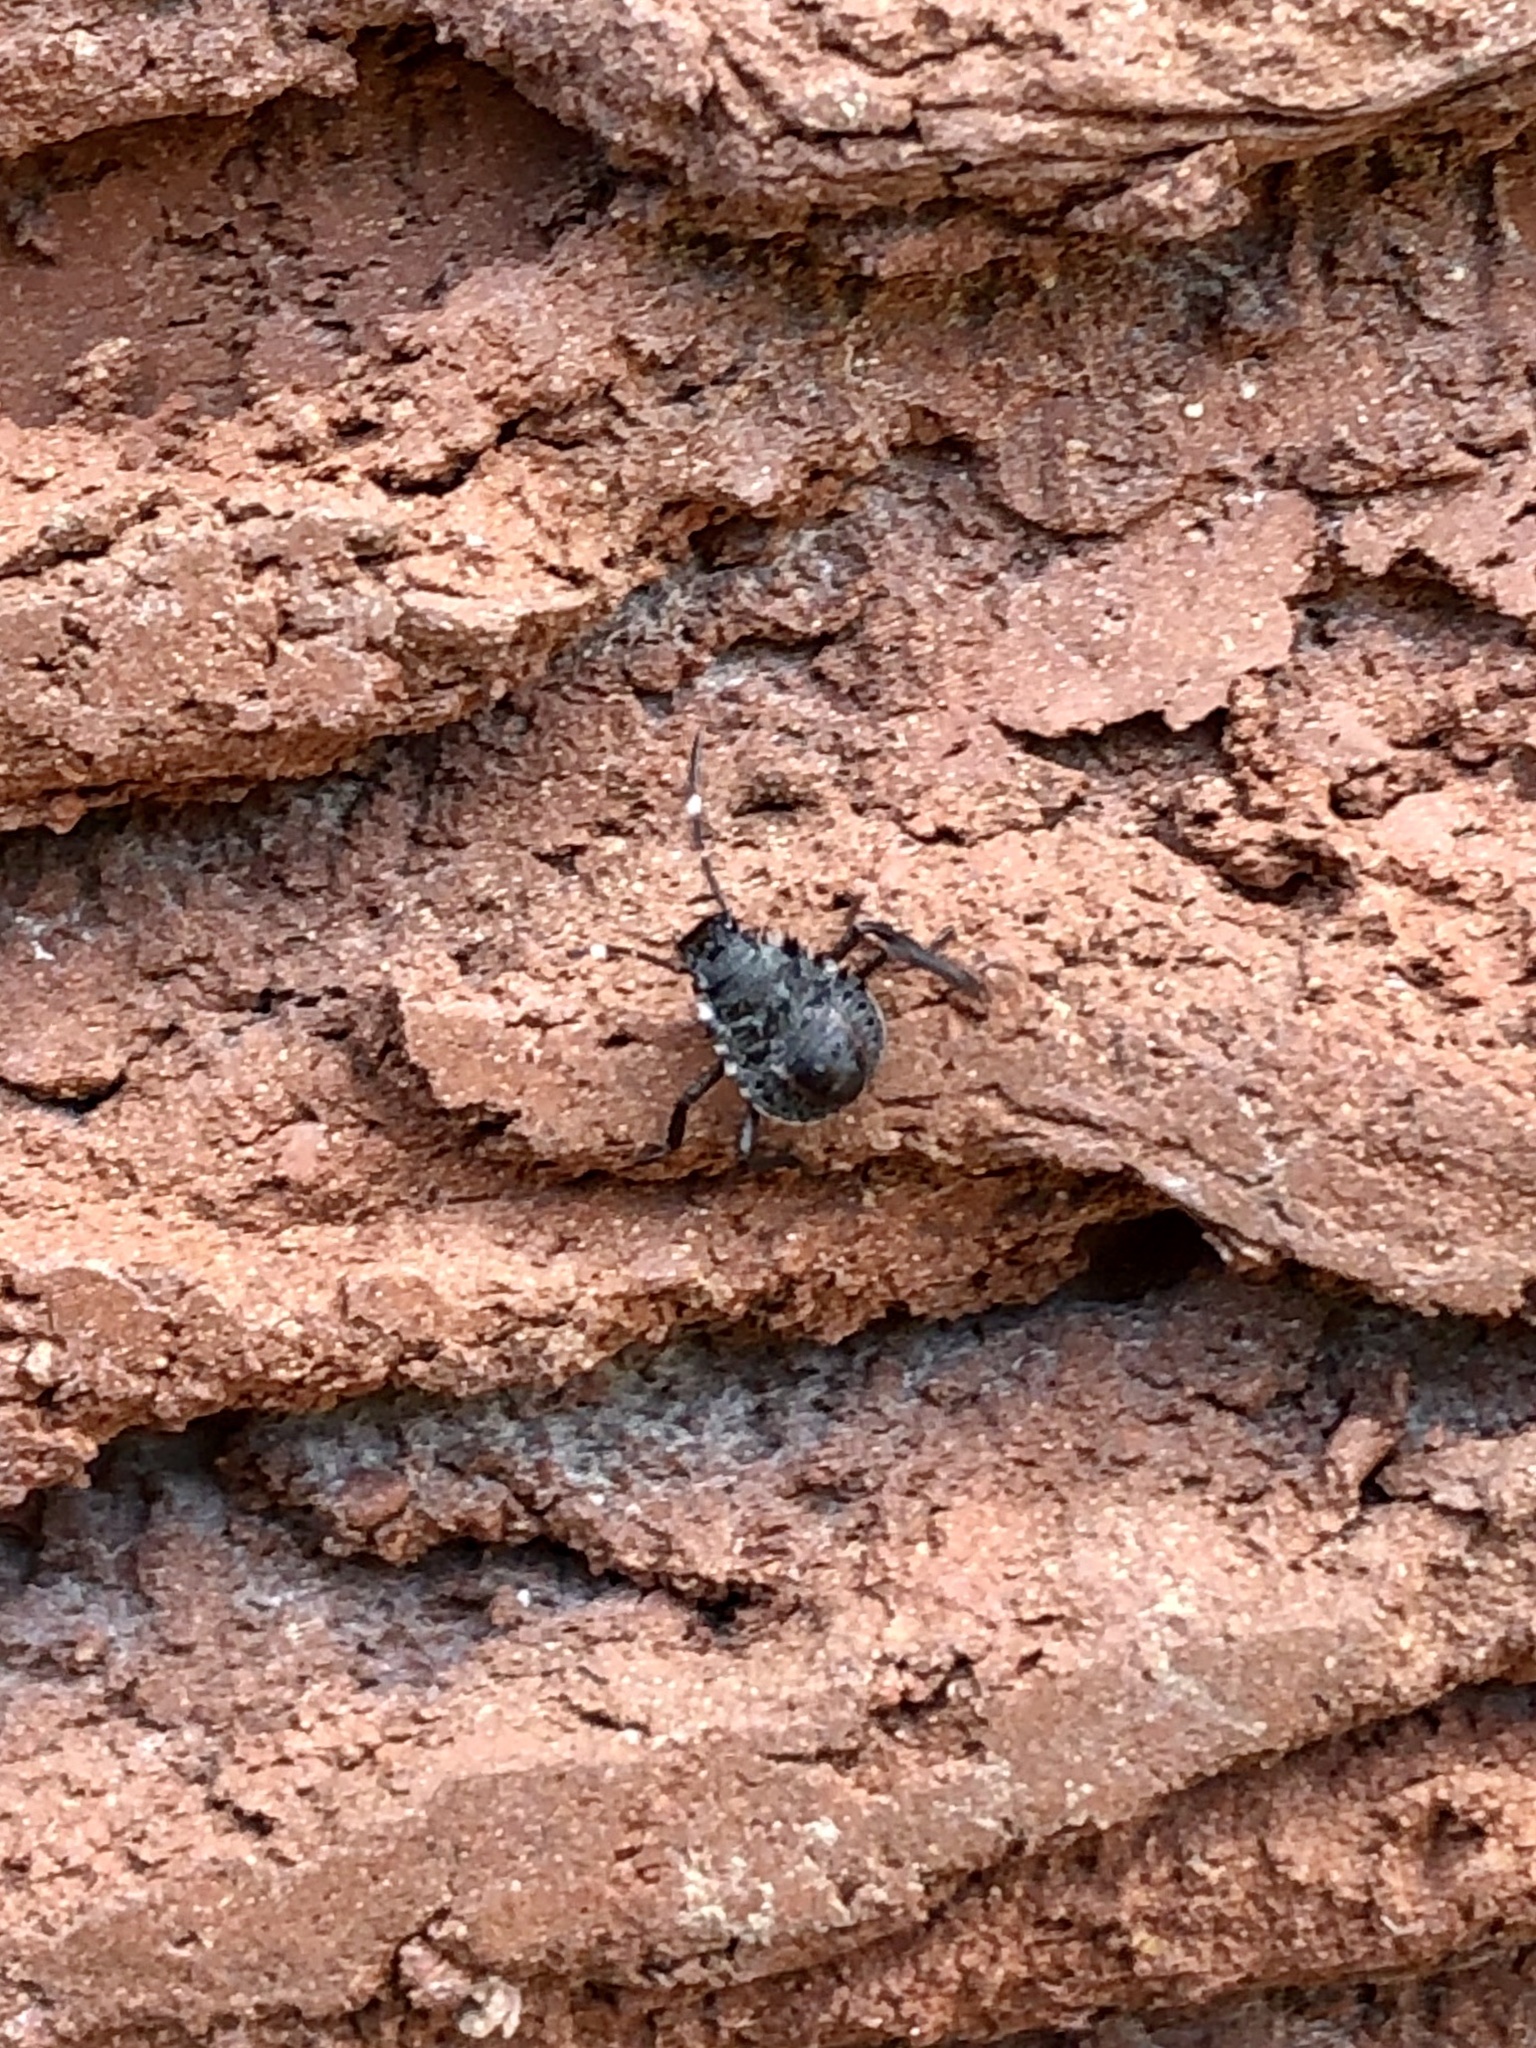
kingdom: Animalia
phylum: Arthropoda
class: Insecta
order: Hemiptera
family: Pentatomidae
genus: Halyomorpha
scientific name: Halyomorpha halys
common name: Brown marmorated stink bug
